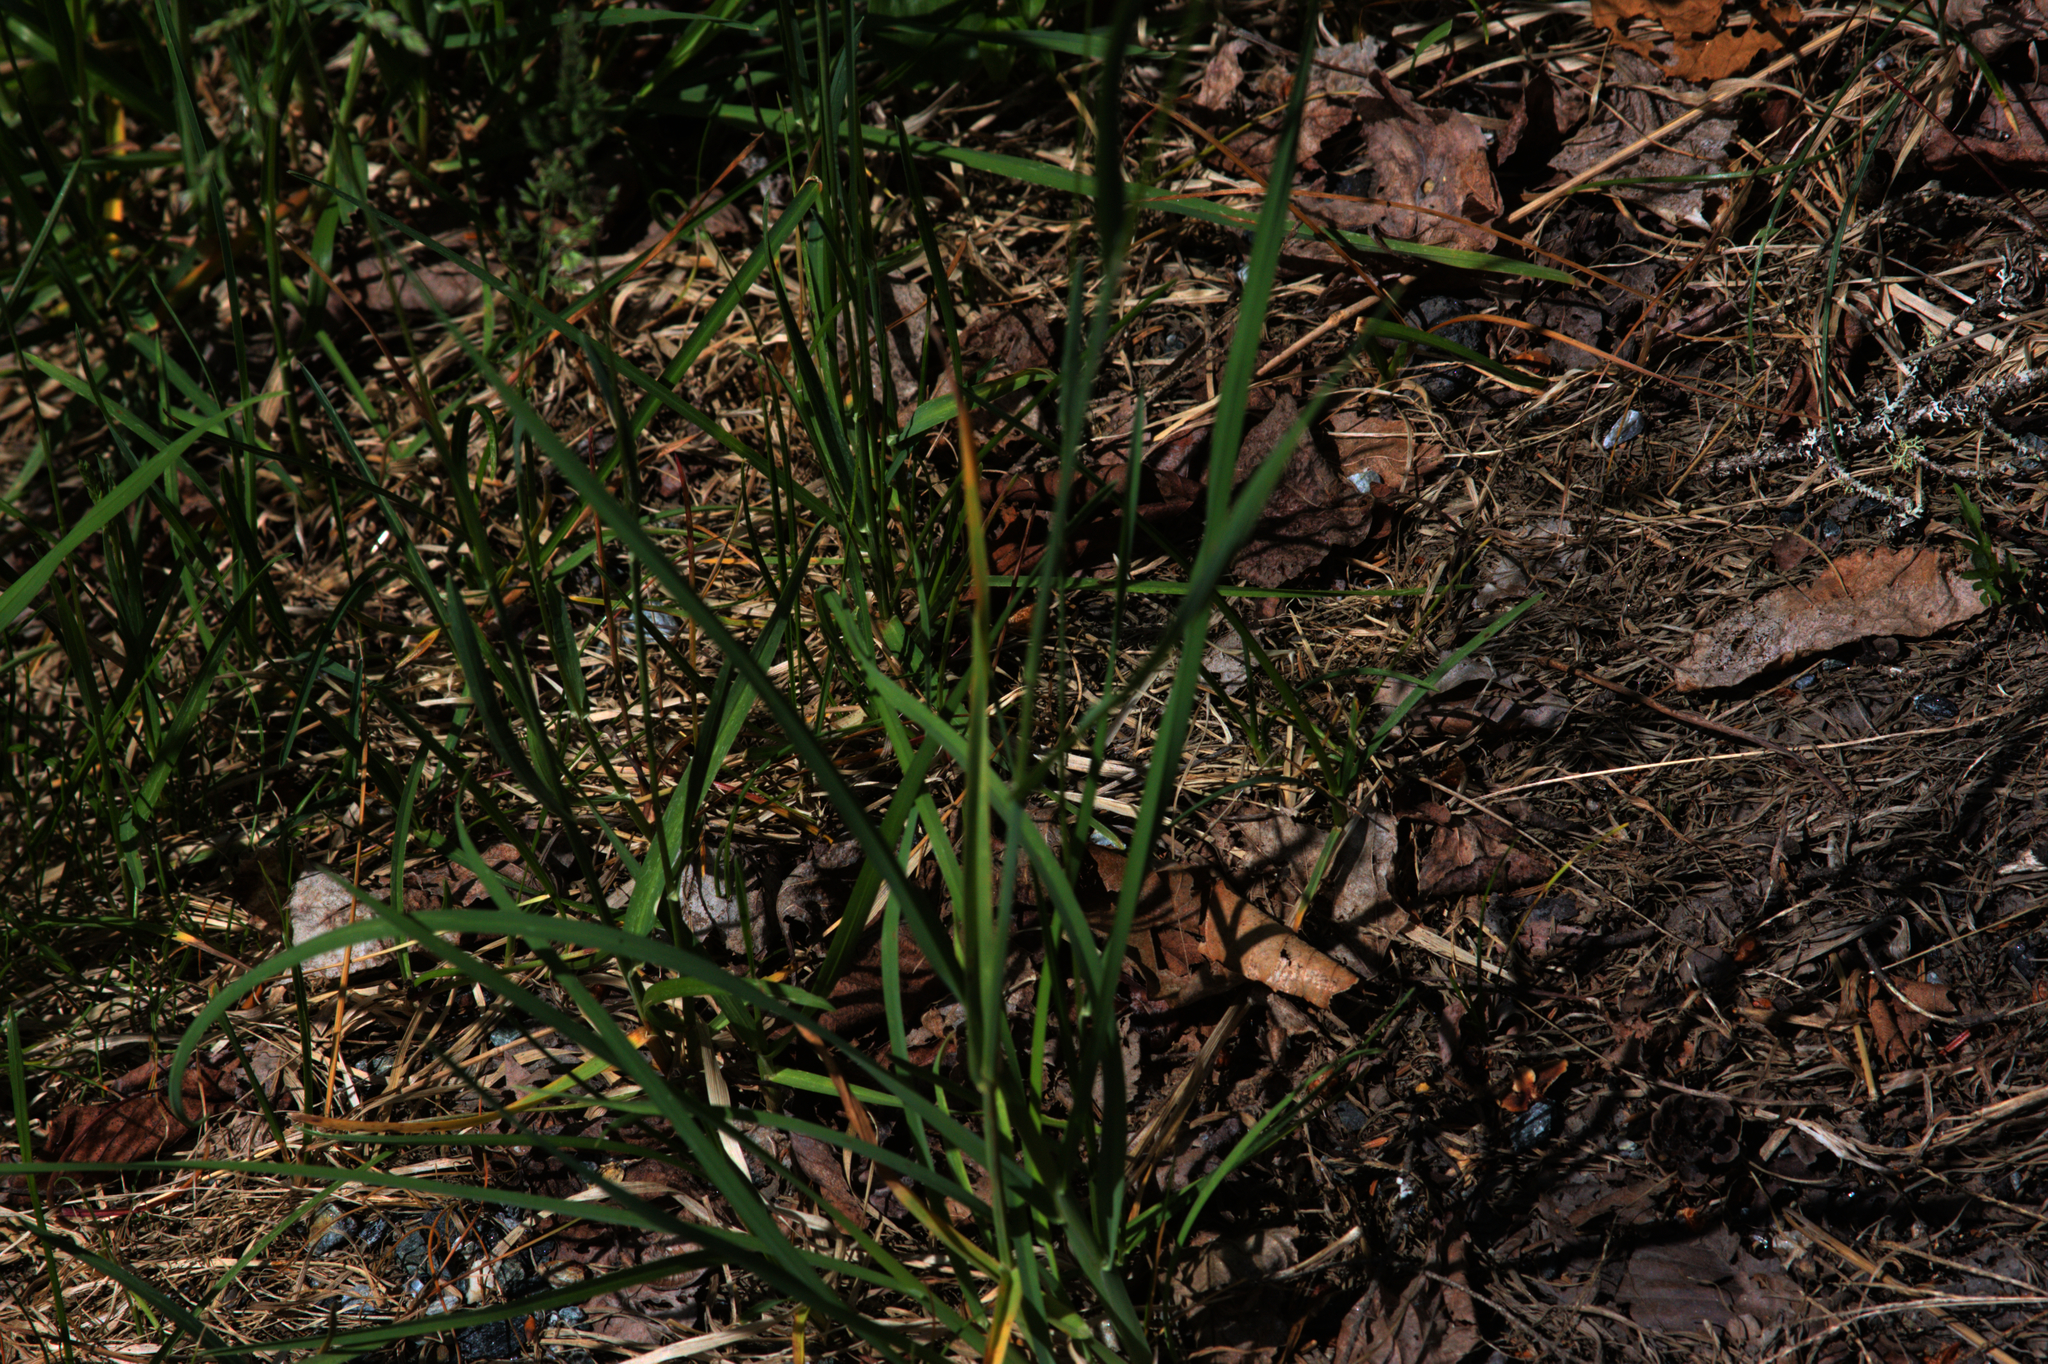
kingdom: Plantae
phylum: Tracheophyta
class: Liliopsida
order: Poales
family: Poaceae
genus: Dactylis
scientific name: Dactylis glomerata
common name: Orchardgrass
